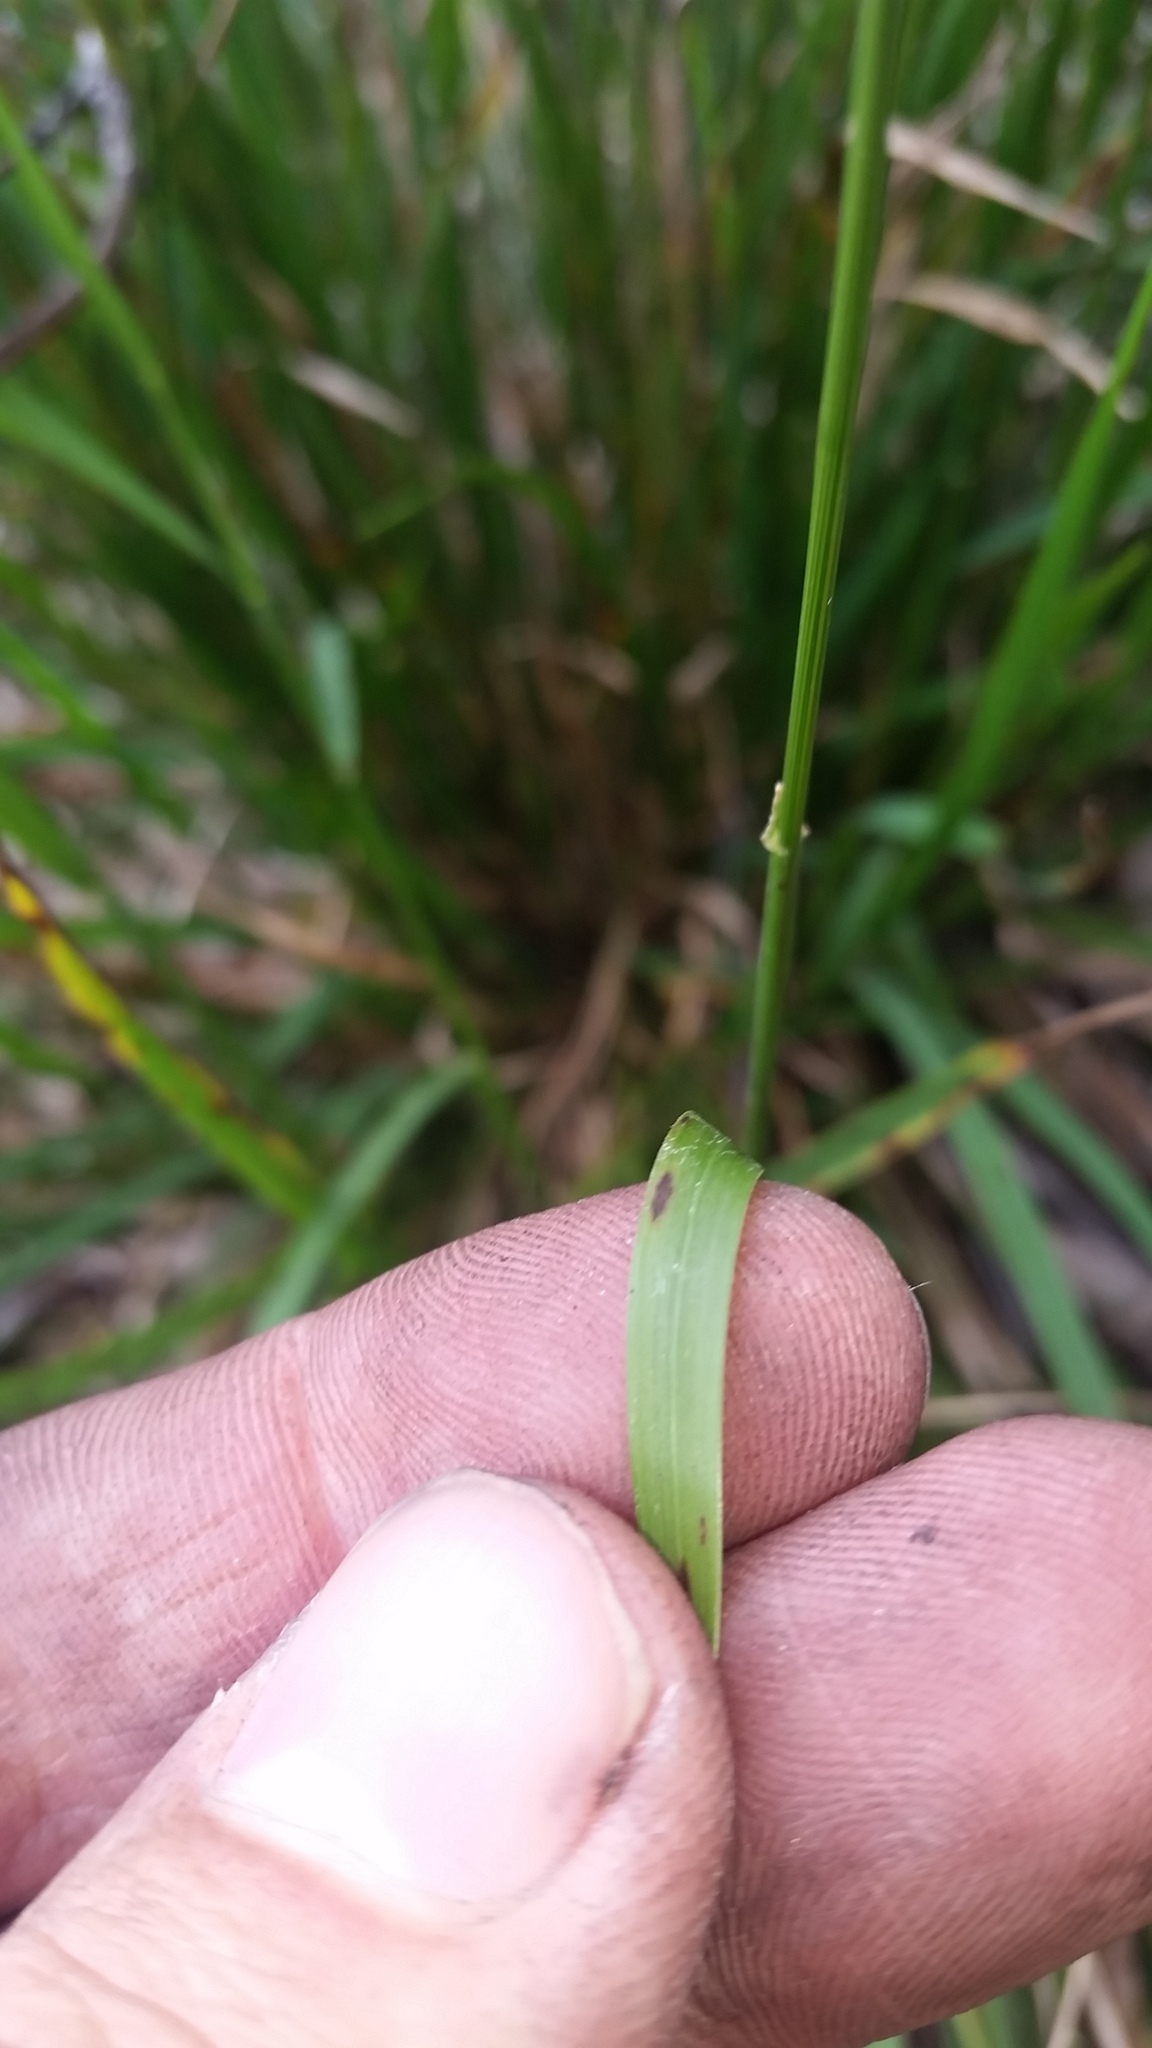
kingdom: Plantae
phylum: Tracheophyta
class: Liliopsida
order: Poales
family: Poaceae
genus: Microlaena
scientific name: Microlaena stipoides
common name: Meadow ricegrass
